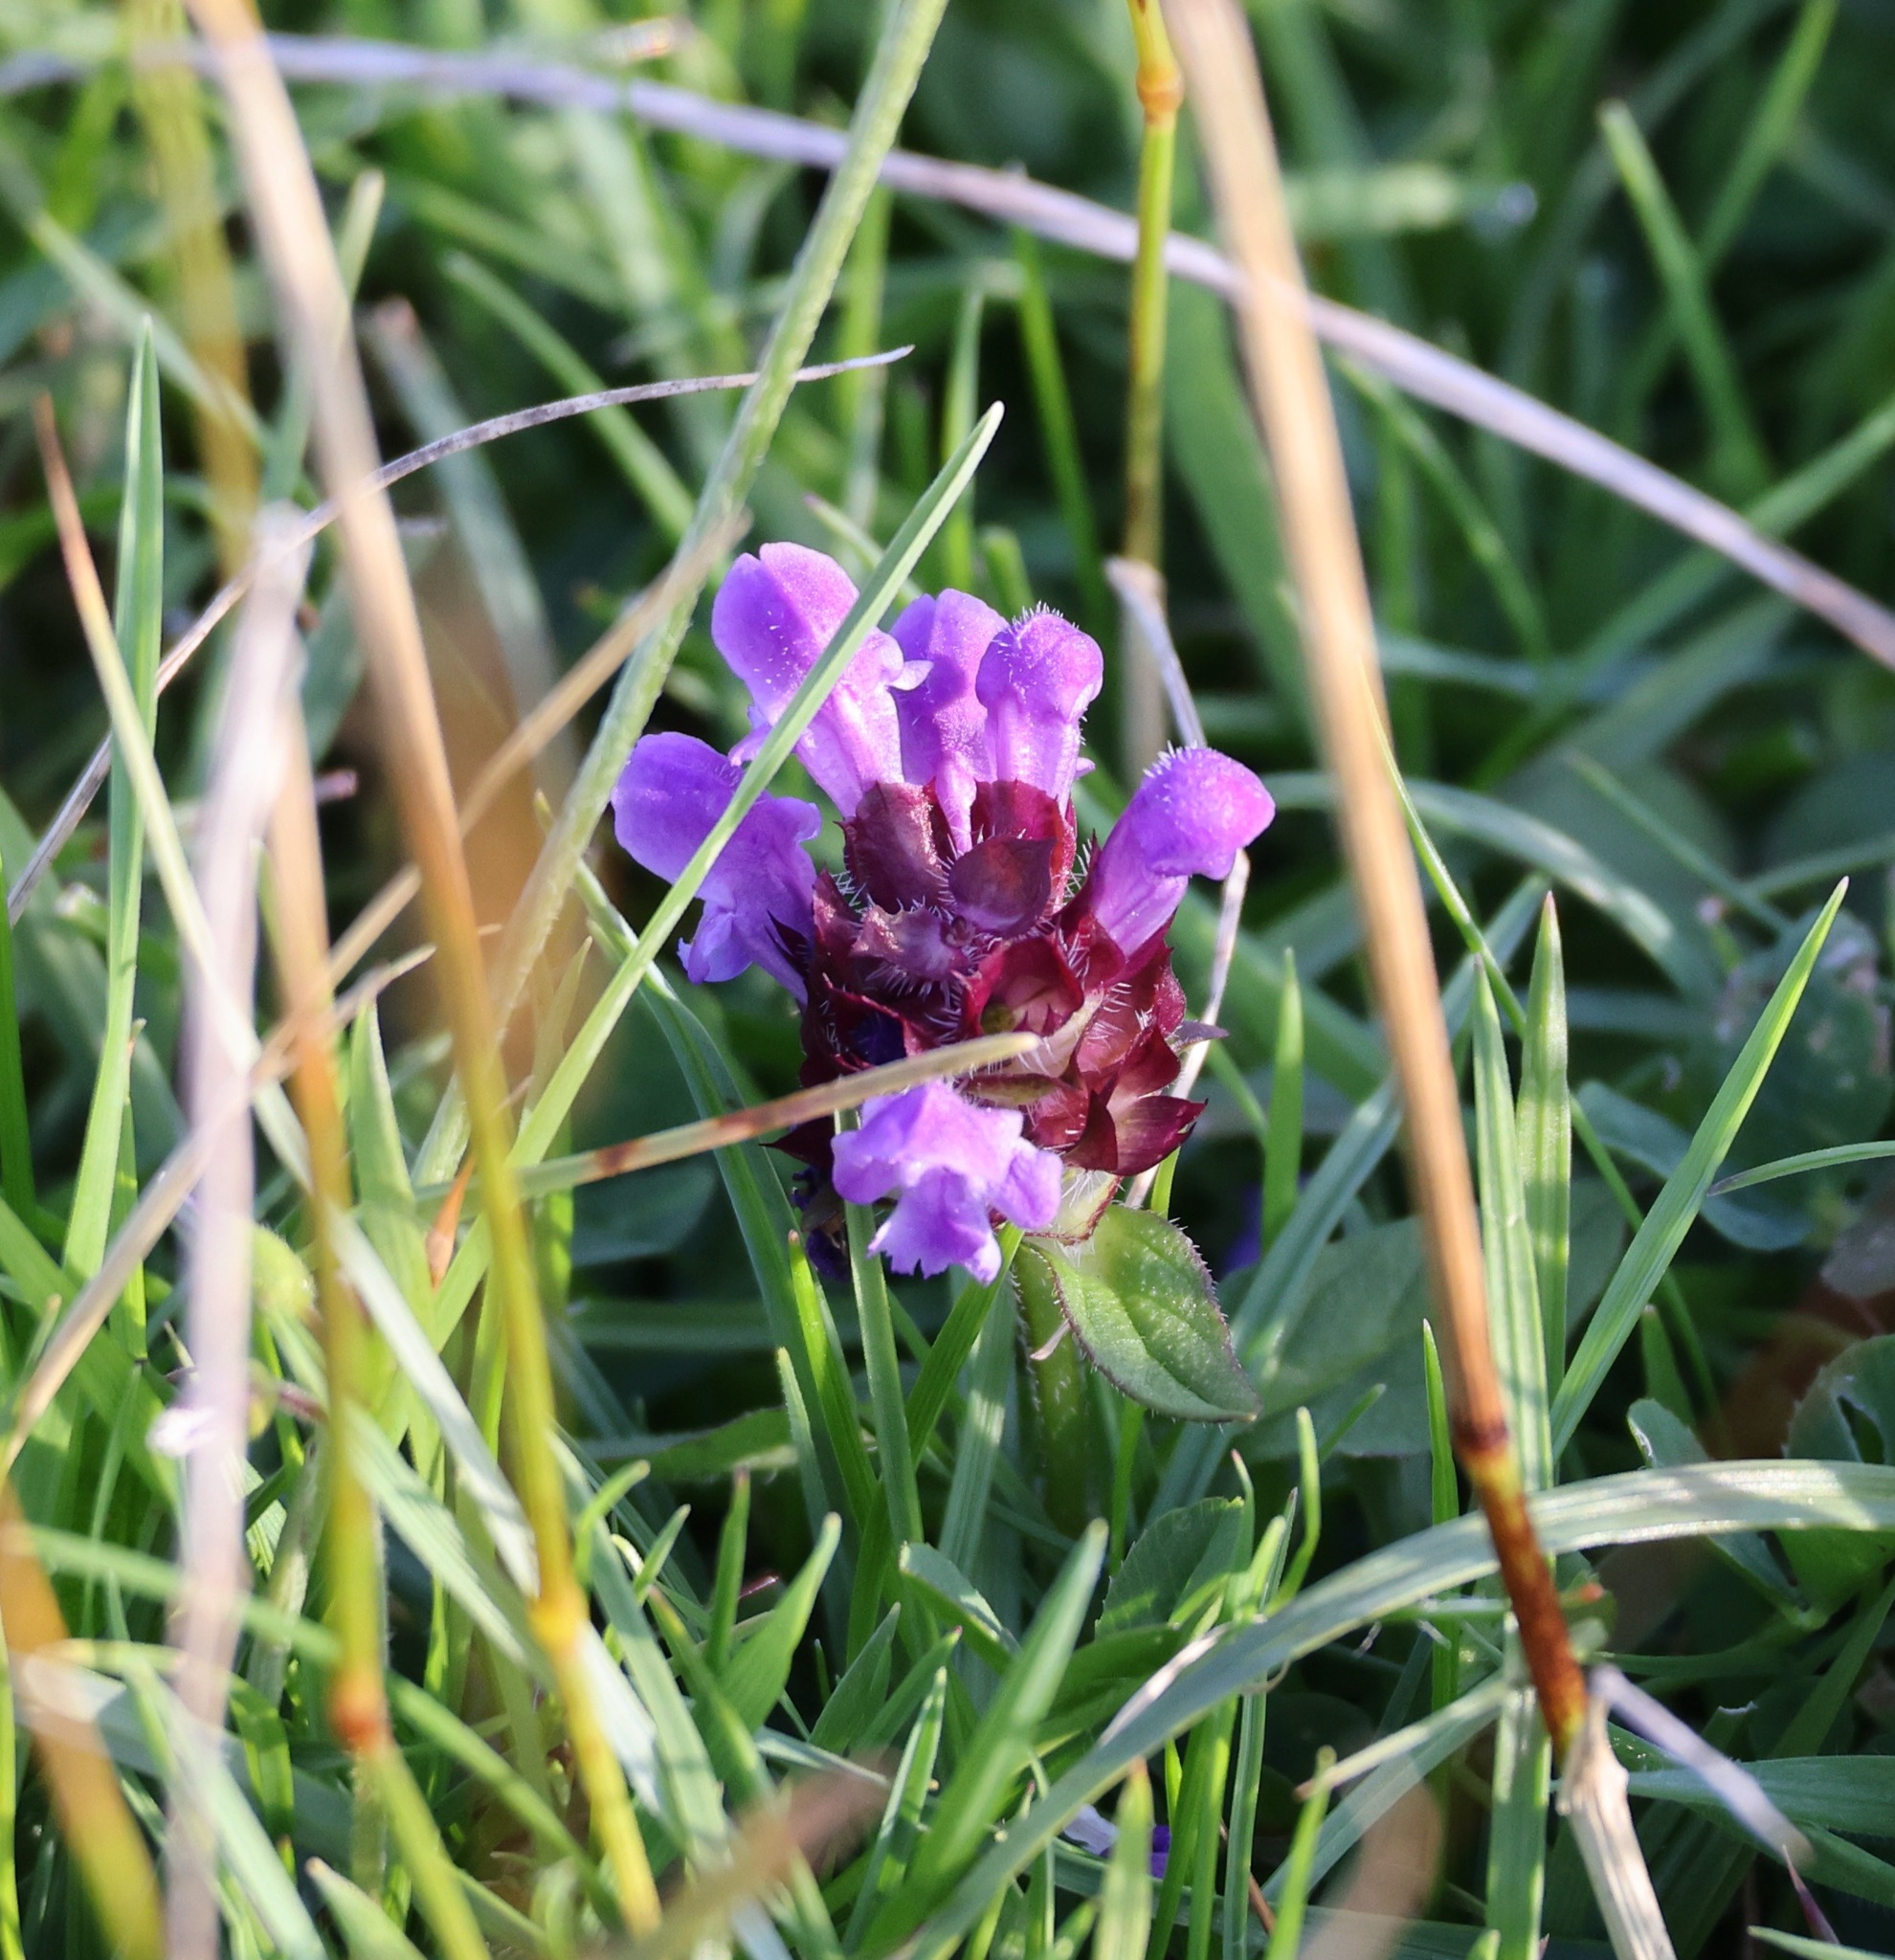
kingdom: Plantae
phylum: Tracheophyta
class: Magnoliopsida
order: Lamiales
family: Lamiaceae
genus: Prunella
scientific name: Prunella vulgaris
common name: Heal-all
